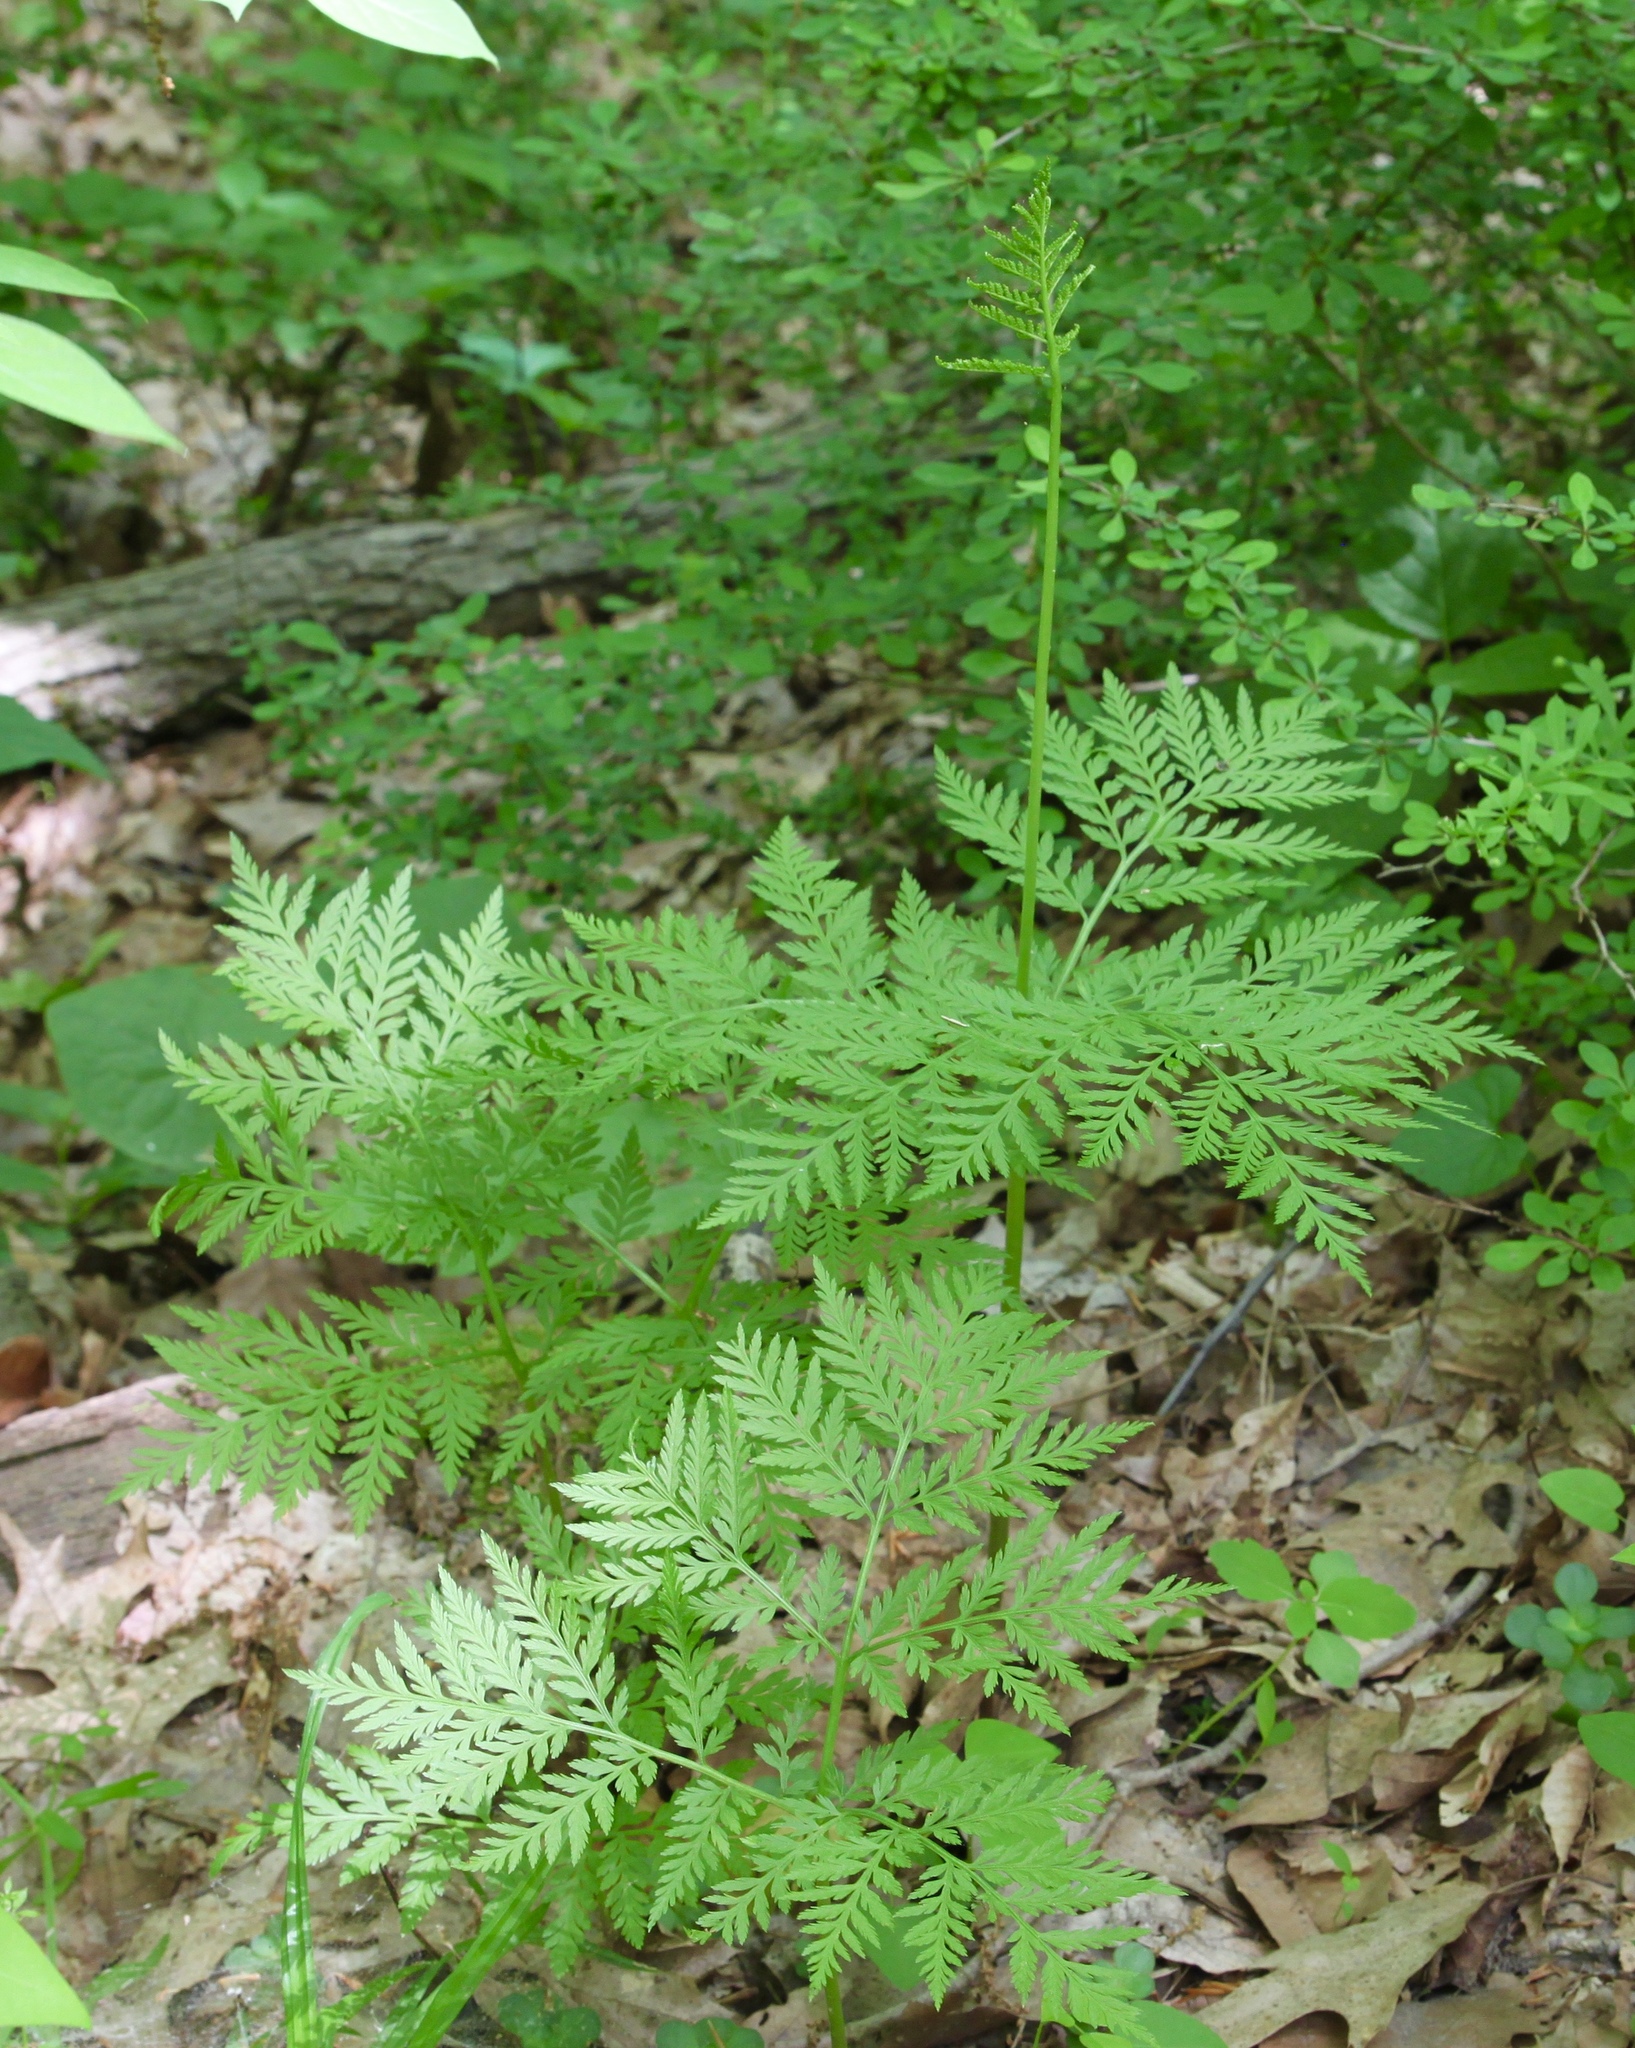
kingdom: Plantae
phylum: Tracheophyta
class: Polypodiopsida
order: Ophioglossales
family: Ophioglossaceae
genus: Botrypus
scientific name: Botrypus virginianus
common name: Common grapefern
